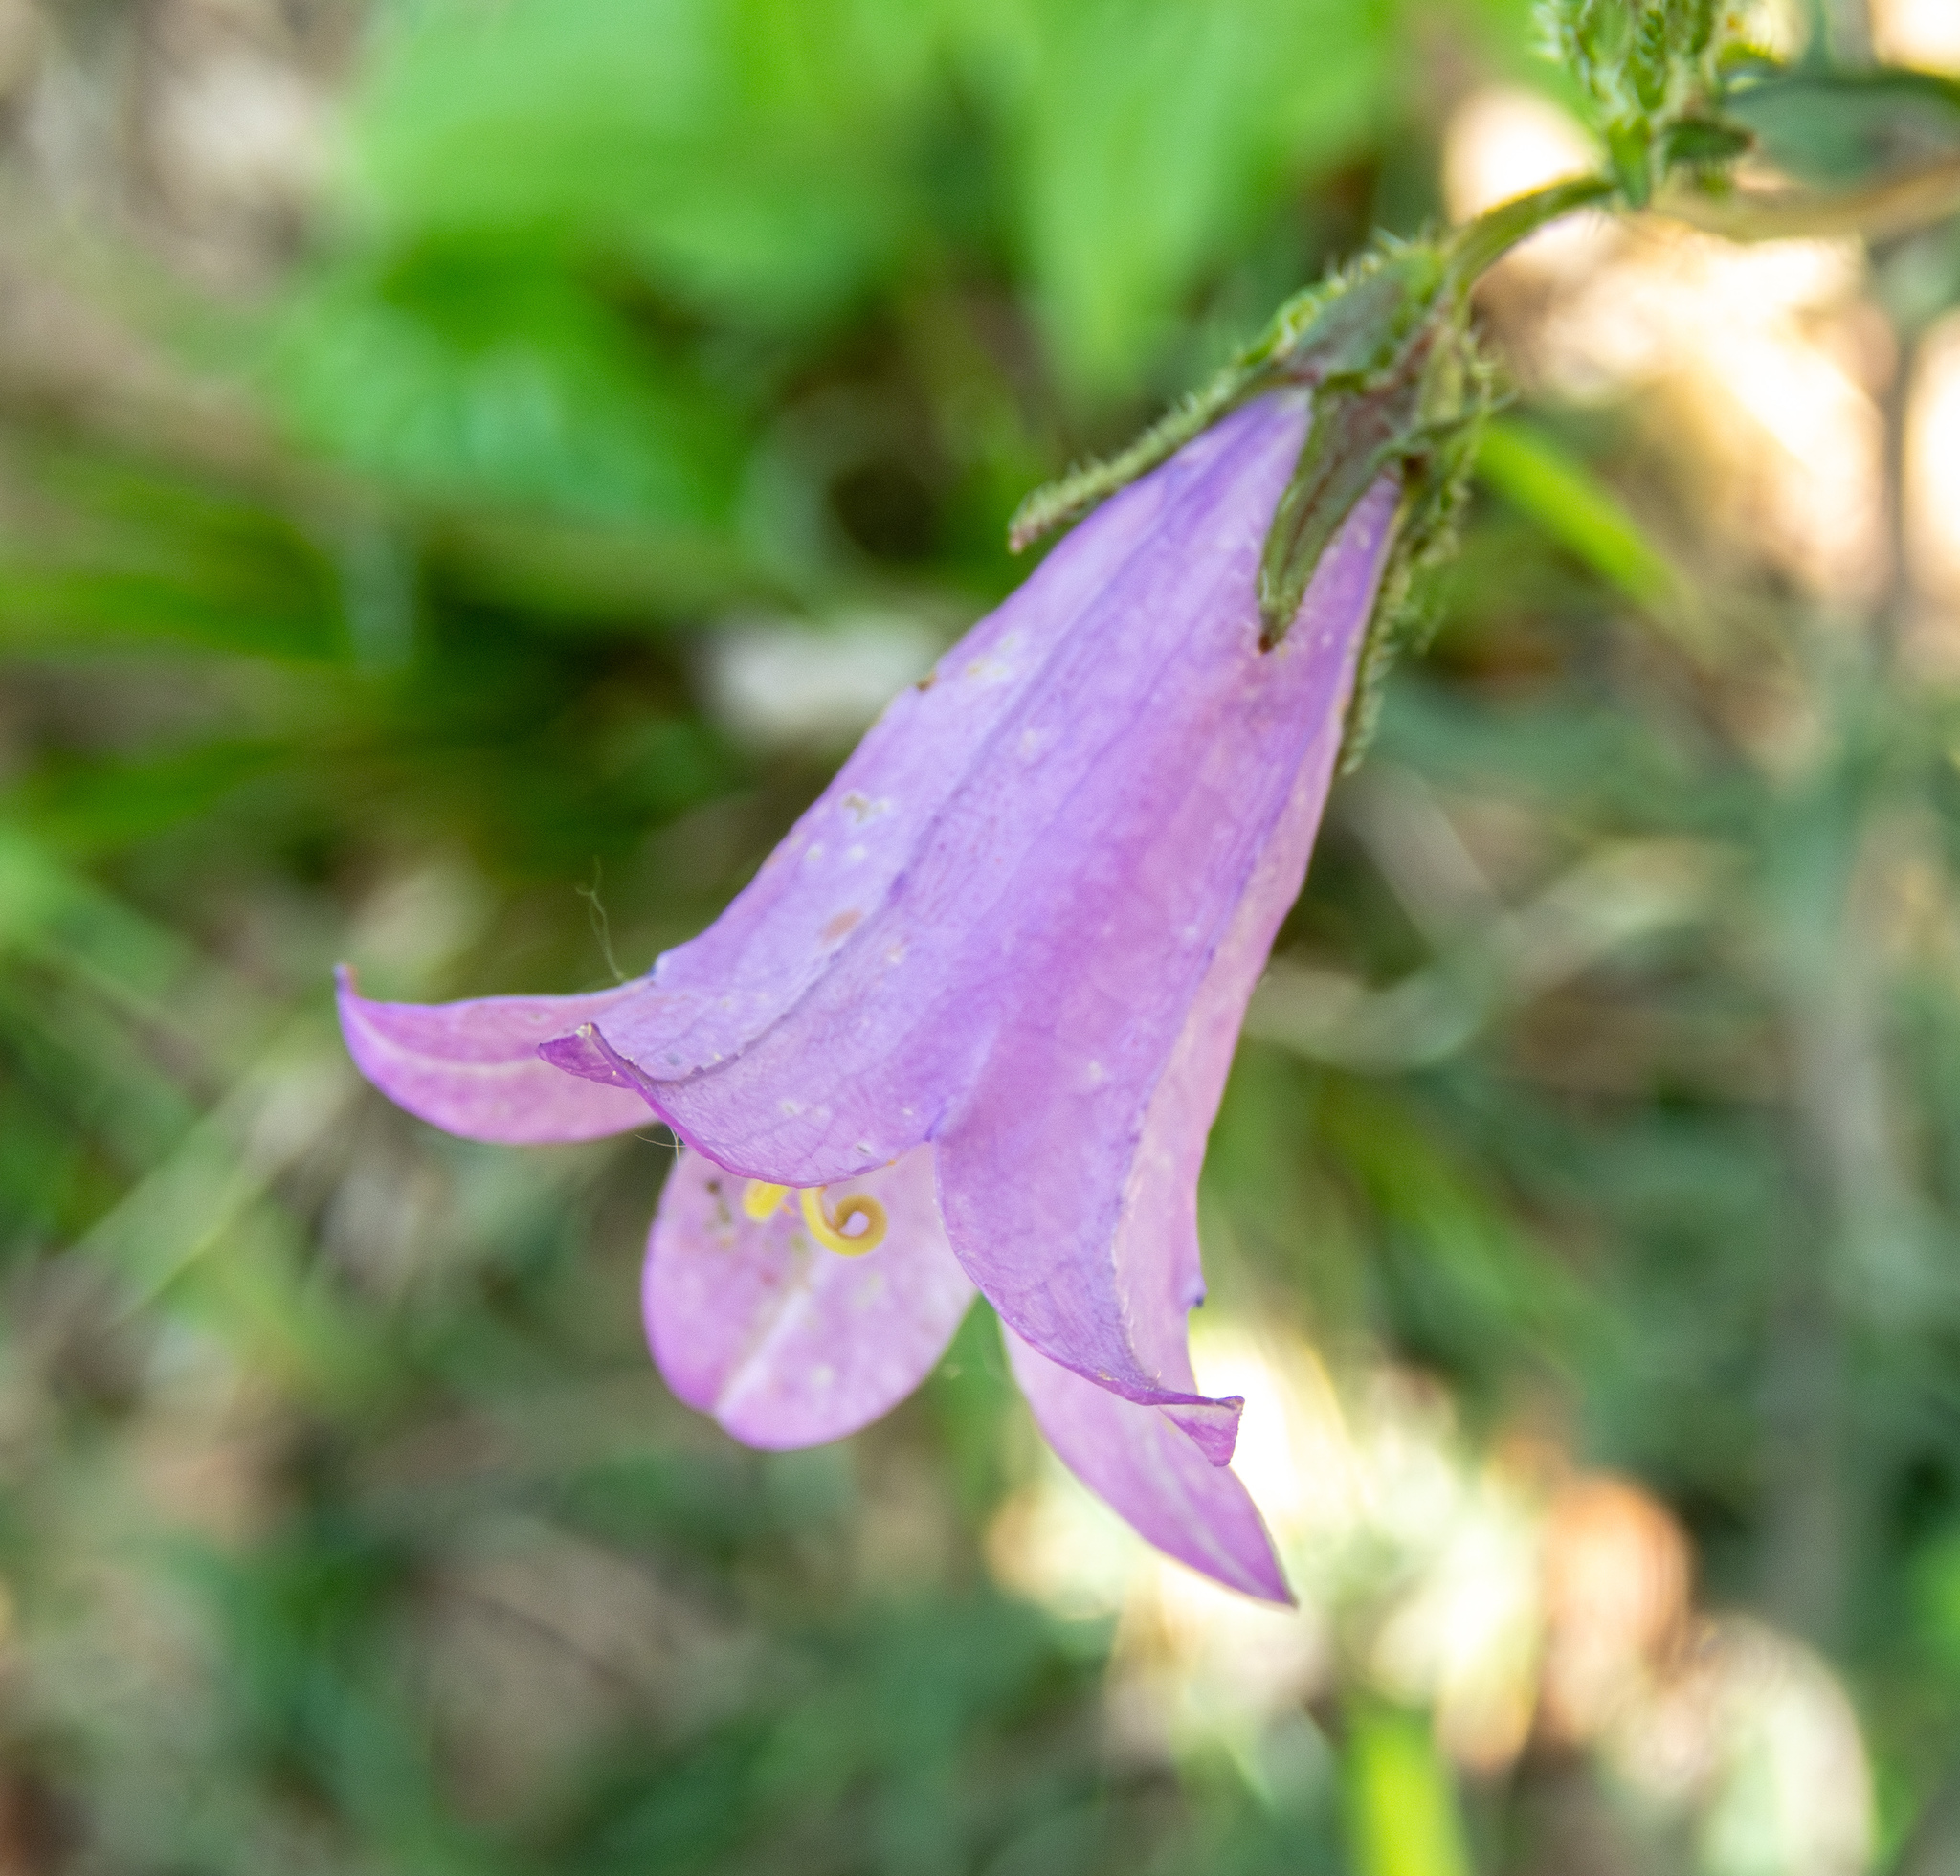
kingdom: Plantae
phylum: Tracheophyta
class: Magnoliopsida
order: Asterales
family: Campanulaceae
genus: Campanula
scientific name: Campanula trachelium
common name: Nettle-leaved bellflower
